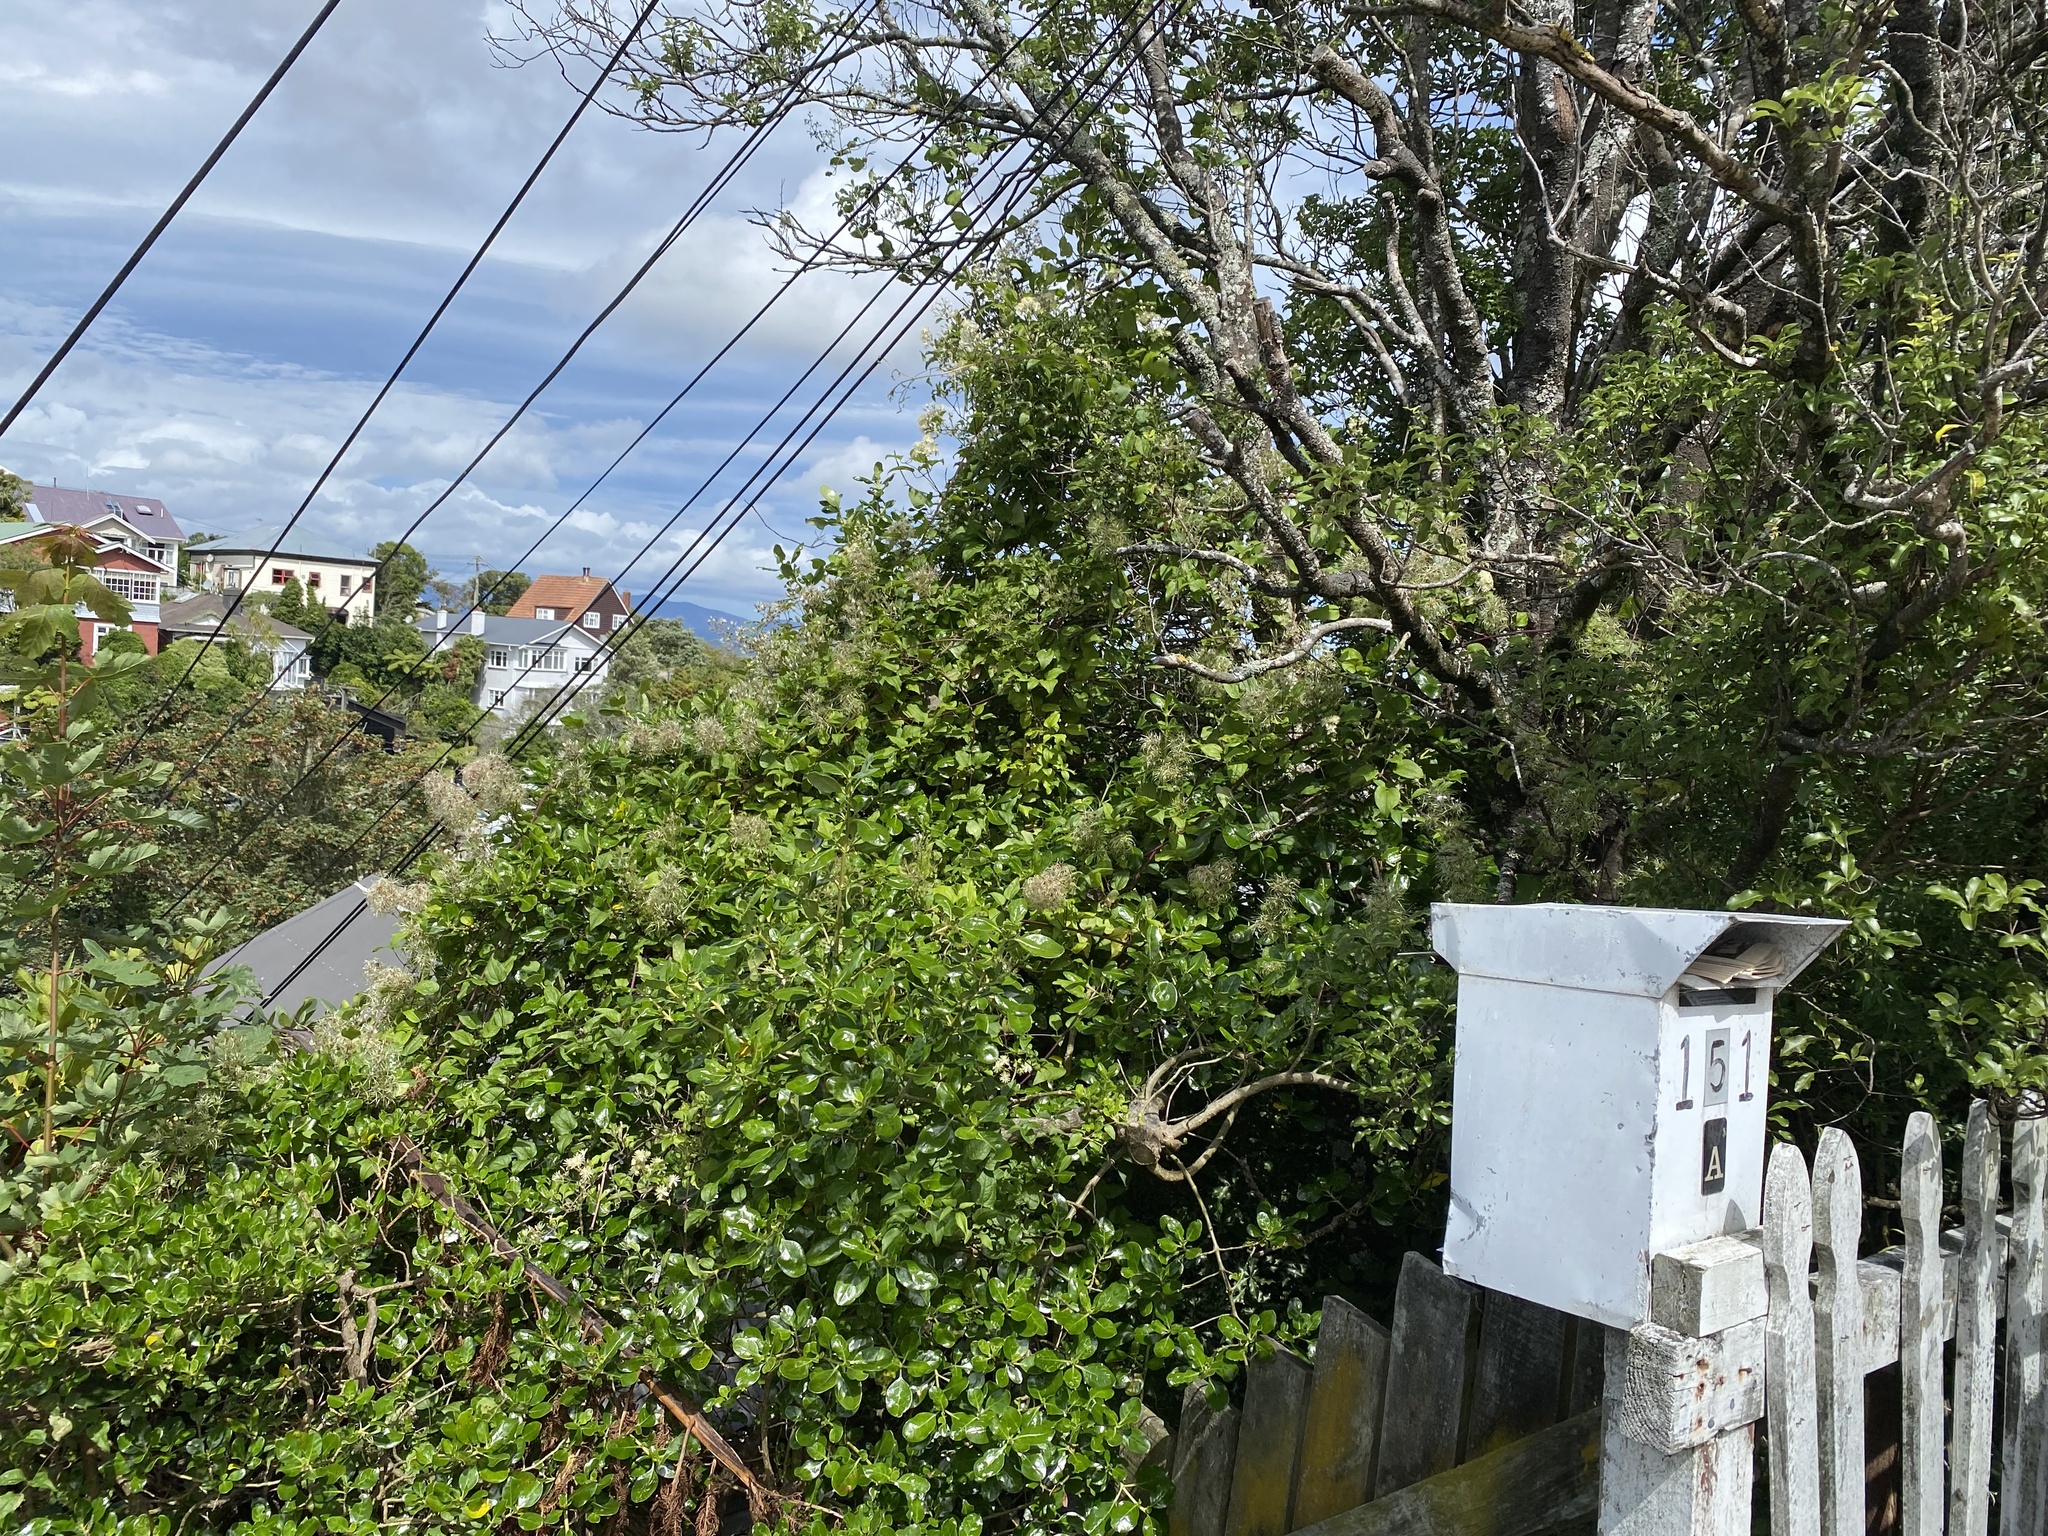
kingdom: Plantae
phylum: Tracheophyta
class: Magnoliopsida
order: Ranunculales
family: Ranunculaceae
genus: Clematis
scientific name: Clematis vitalba
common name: Evergreen clematis
